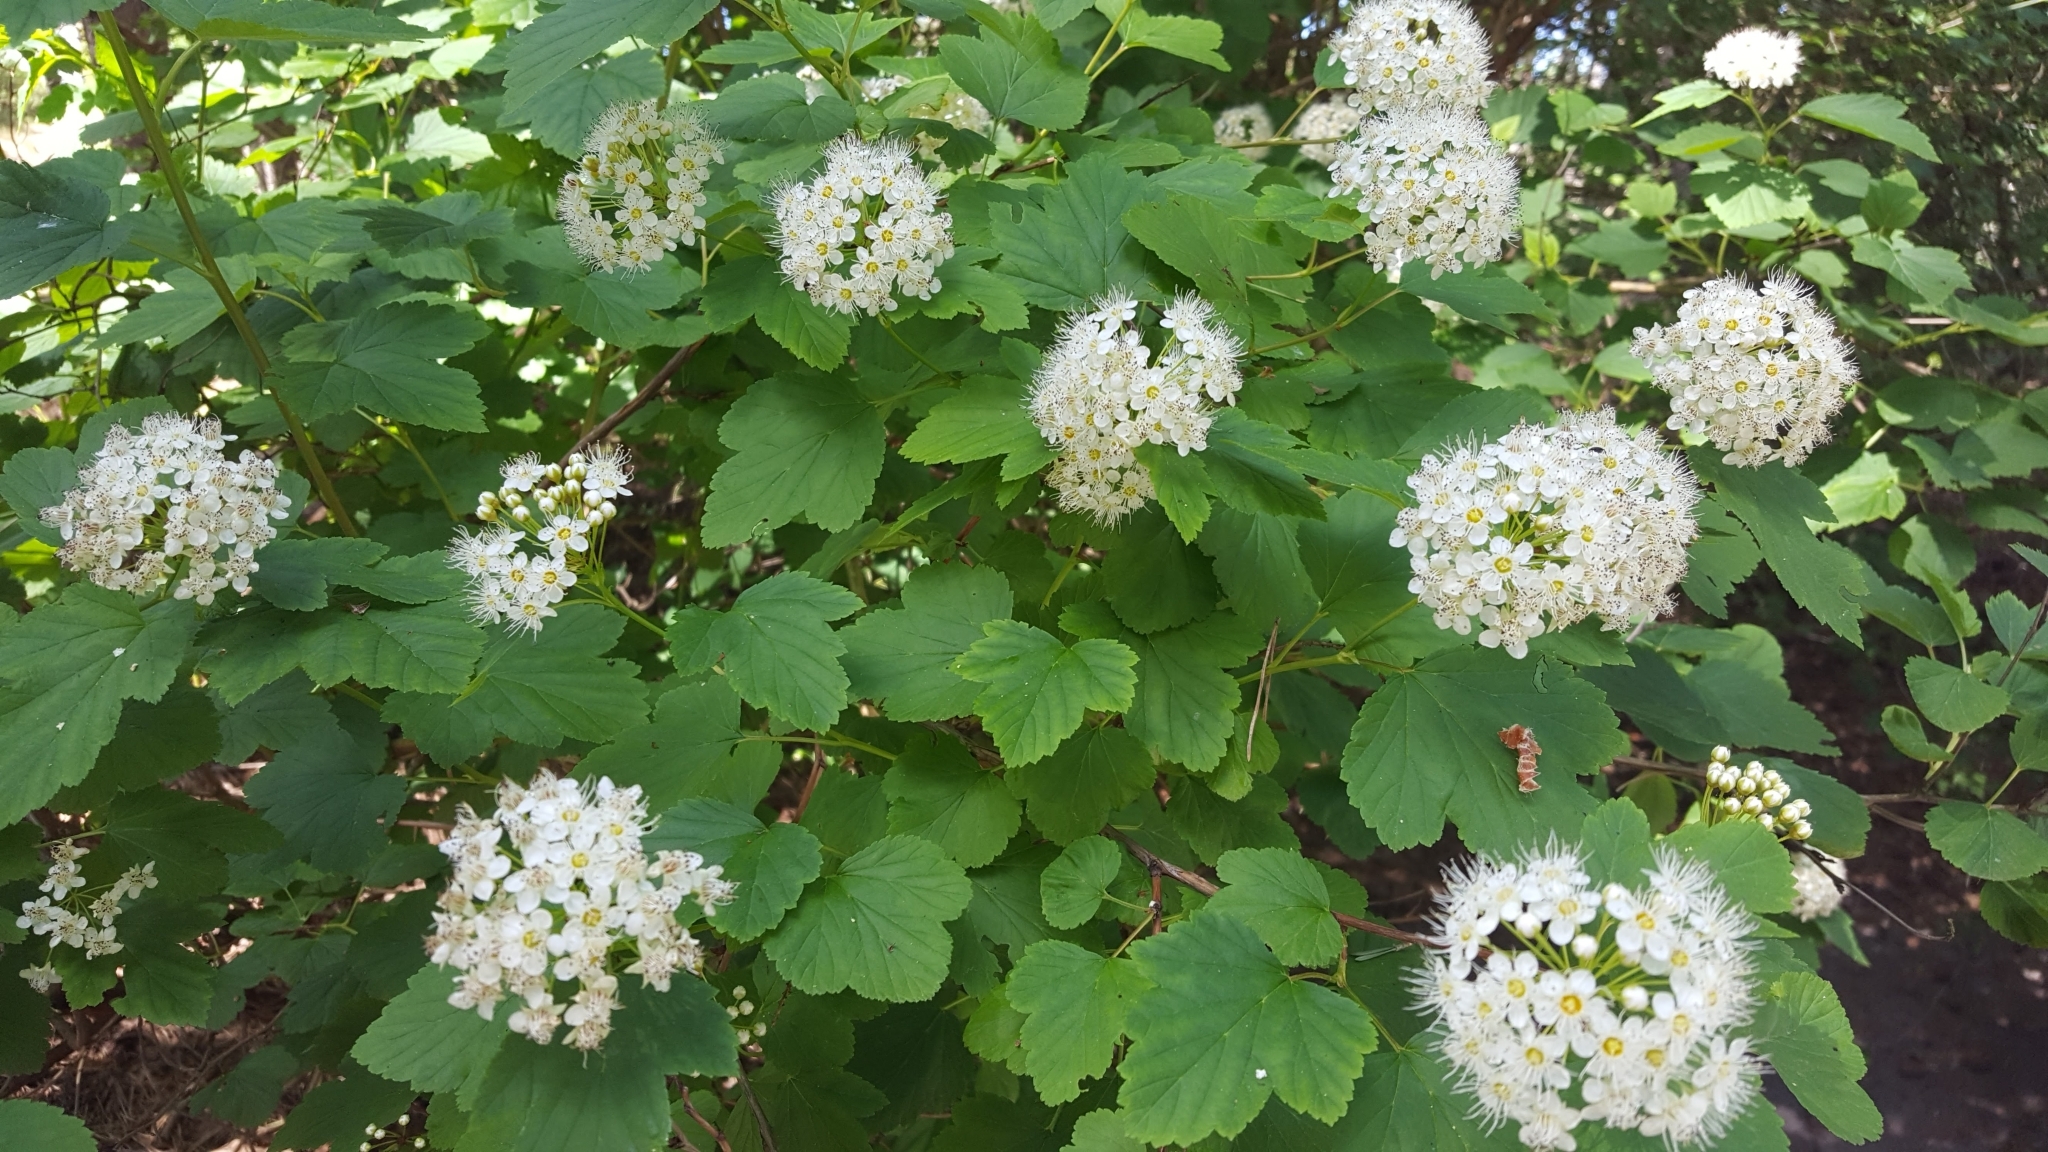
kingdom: Plantae
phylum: Tracheophyta
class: Magnoliopsida
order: Rosales
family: Rosaceae
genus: Physocarpus
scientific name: Physocarpus opulifolius
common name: Ninebark
